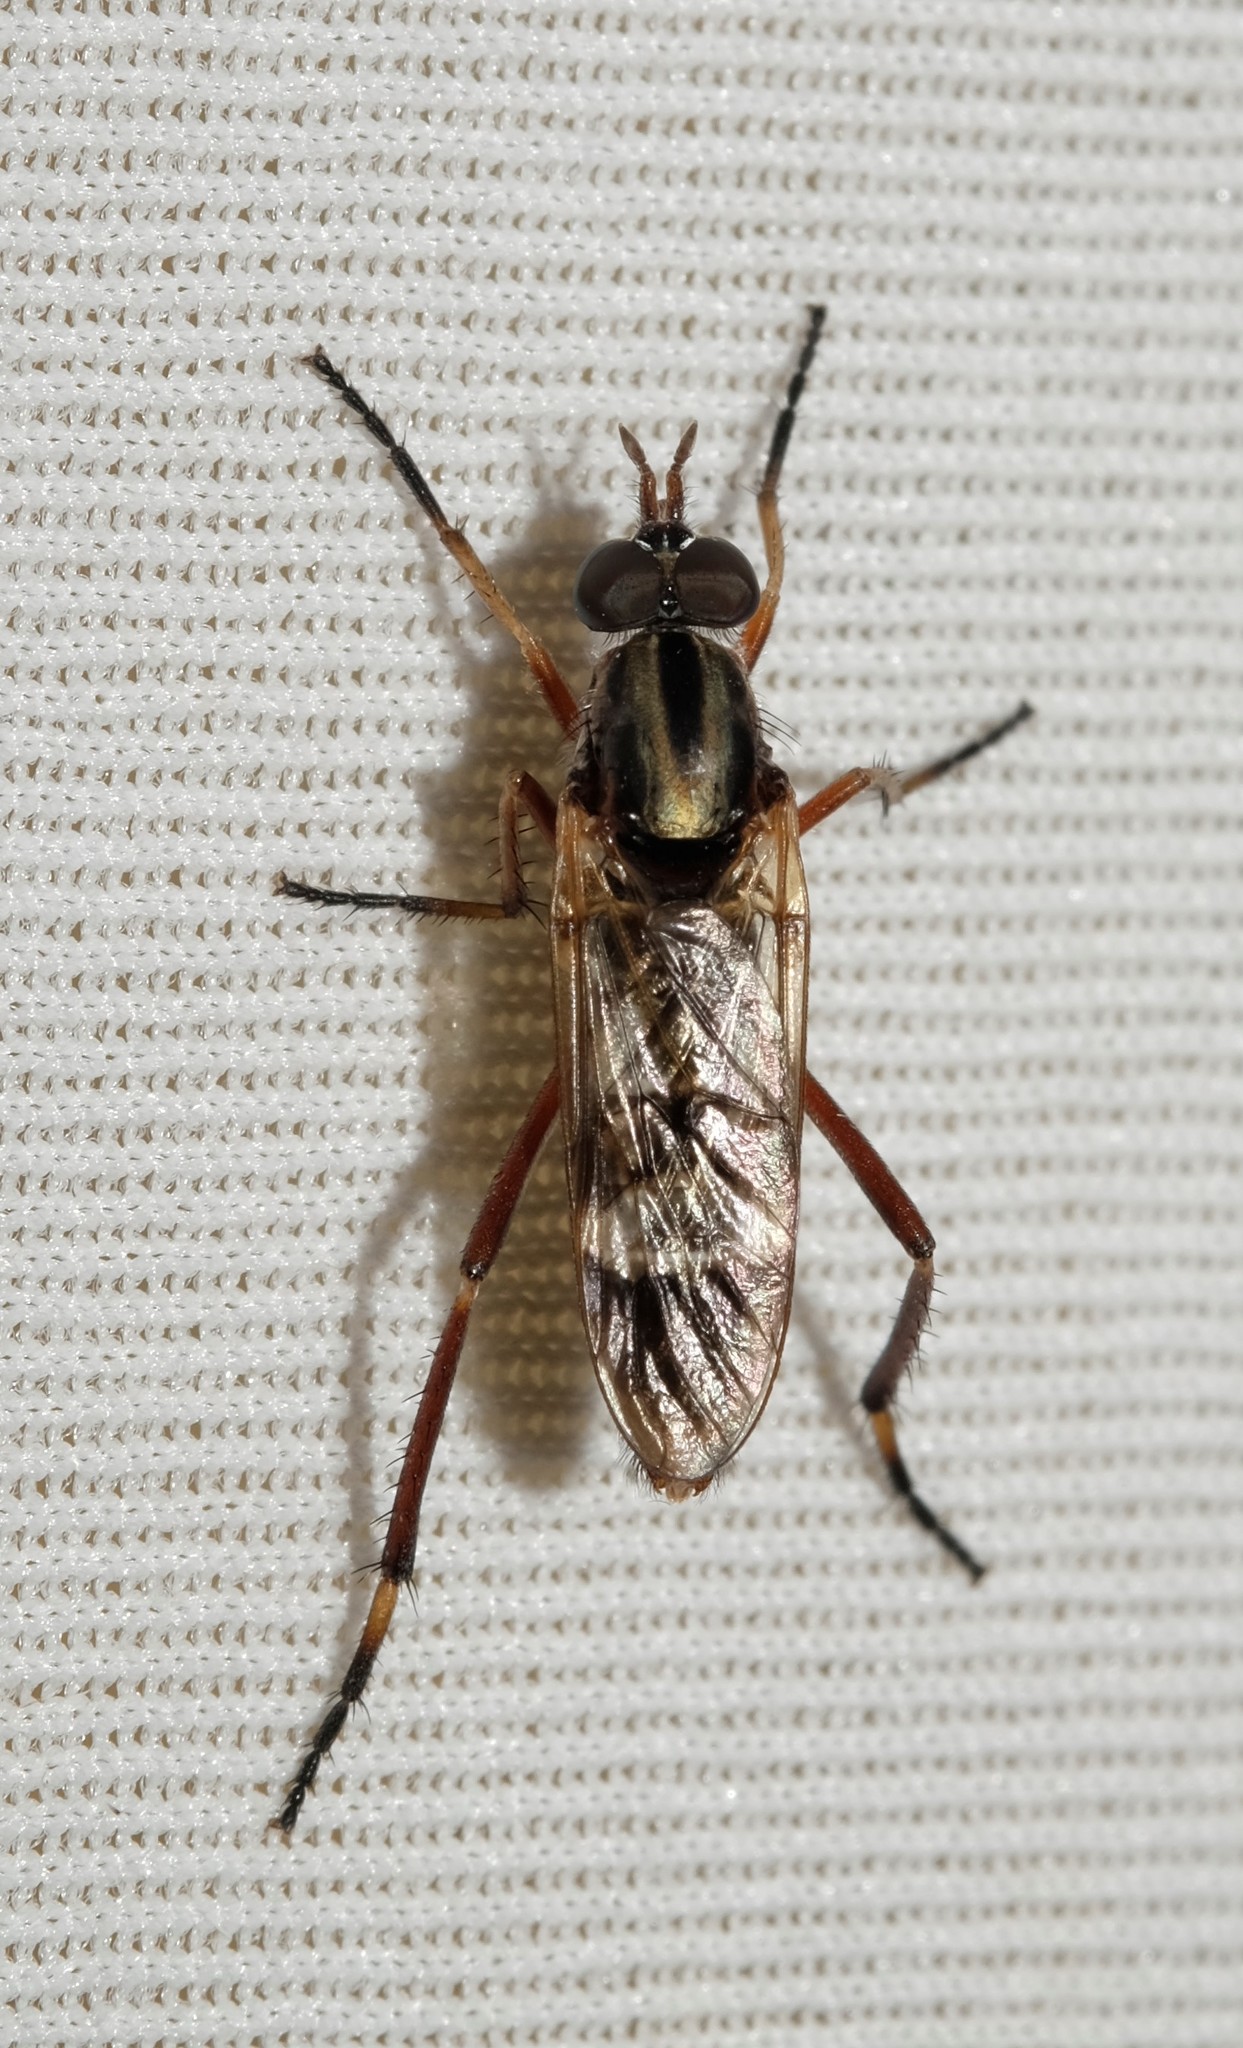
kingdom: Animalia
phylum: Arthropoda
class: Insecta
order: Diptera
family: Therevidae
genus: Evansomyia
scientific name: Evansomyia
